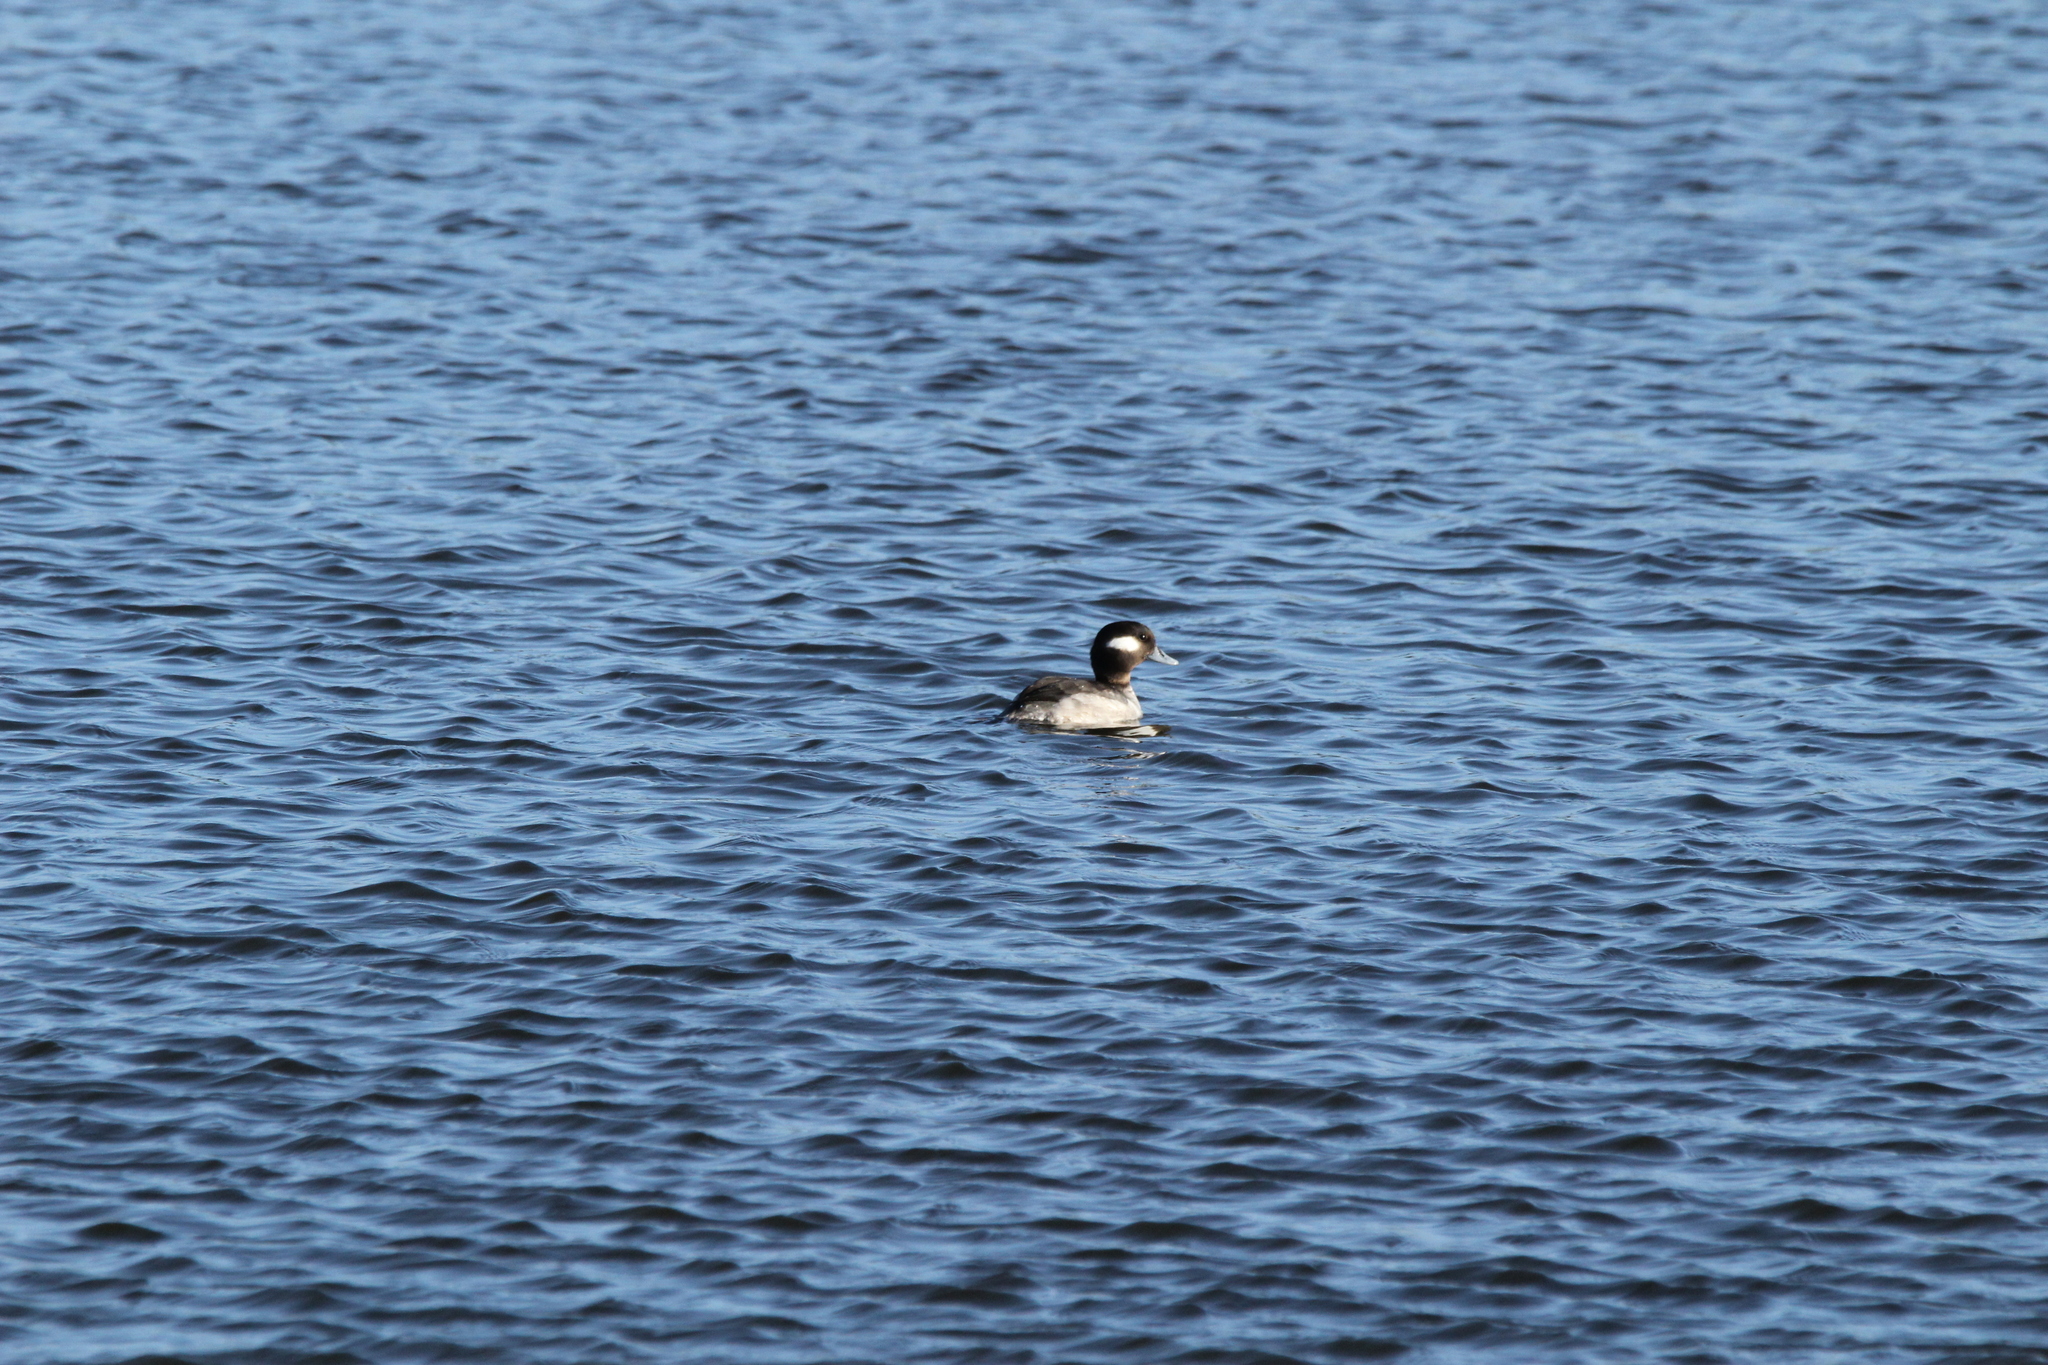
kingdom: Animalia
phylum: Chordata
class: Aves
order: Anseriformes
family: Anatidae
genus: Bucephala
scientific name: Bucephala albeola
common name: Bufflehead
